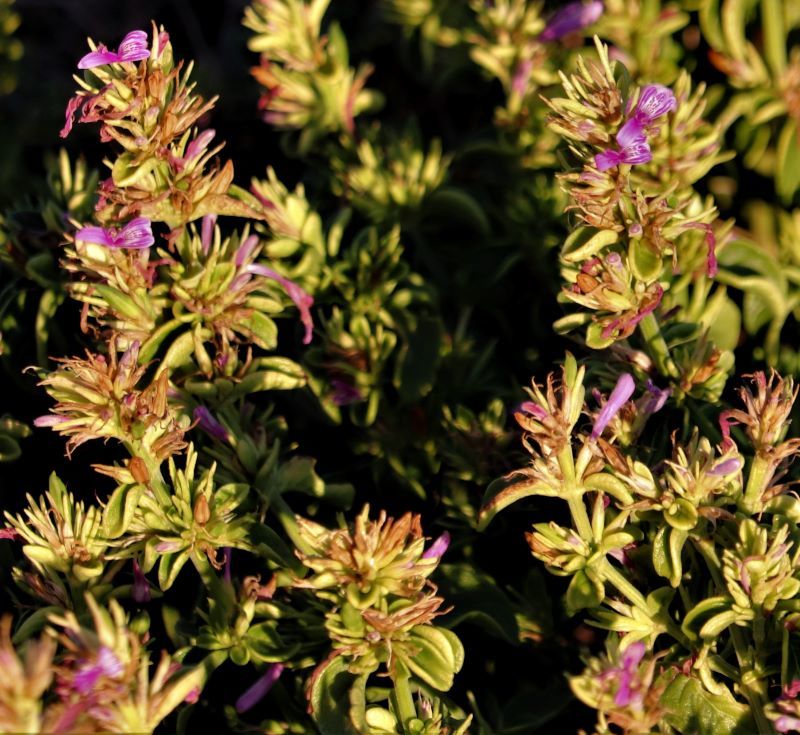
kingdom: Plantae
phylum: Tracheophyta
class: Magnoliopsida
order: Lamiales
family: Acanthaceae
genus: Hypoestes
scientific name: Hypoestes aristata
